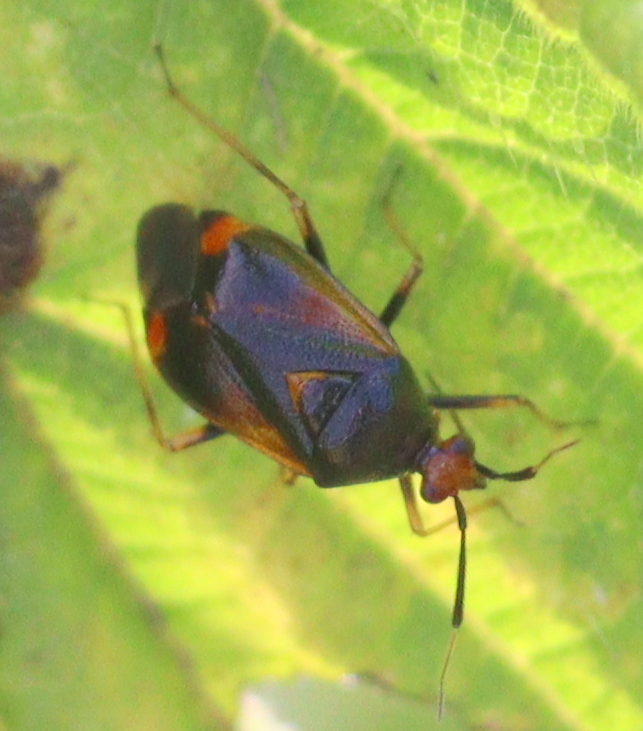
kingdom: Animalia
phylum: Arthropoda
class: Insecta
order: Hemiptera
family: Miridae
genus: Deraeocoris
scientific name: Deraeocoris ruber
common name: Plant bug
